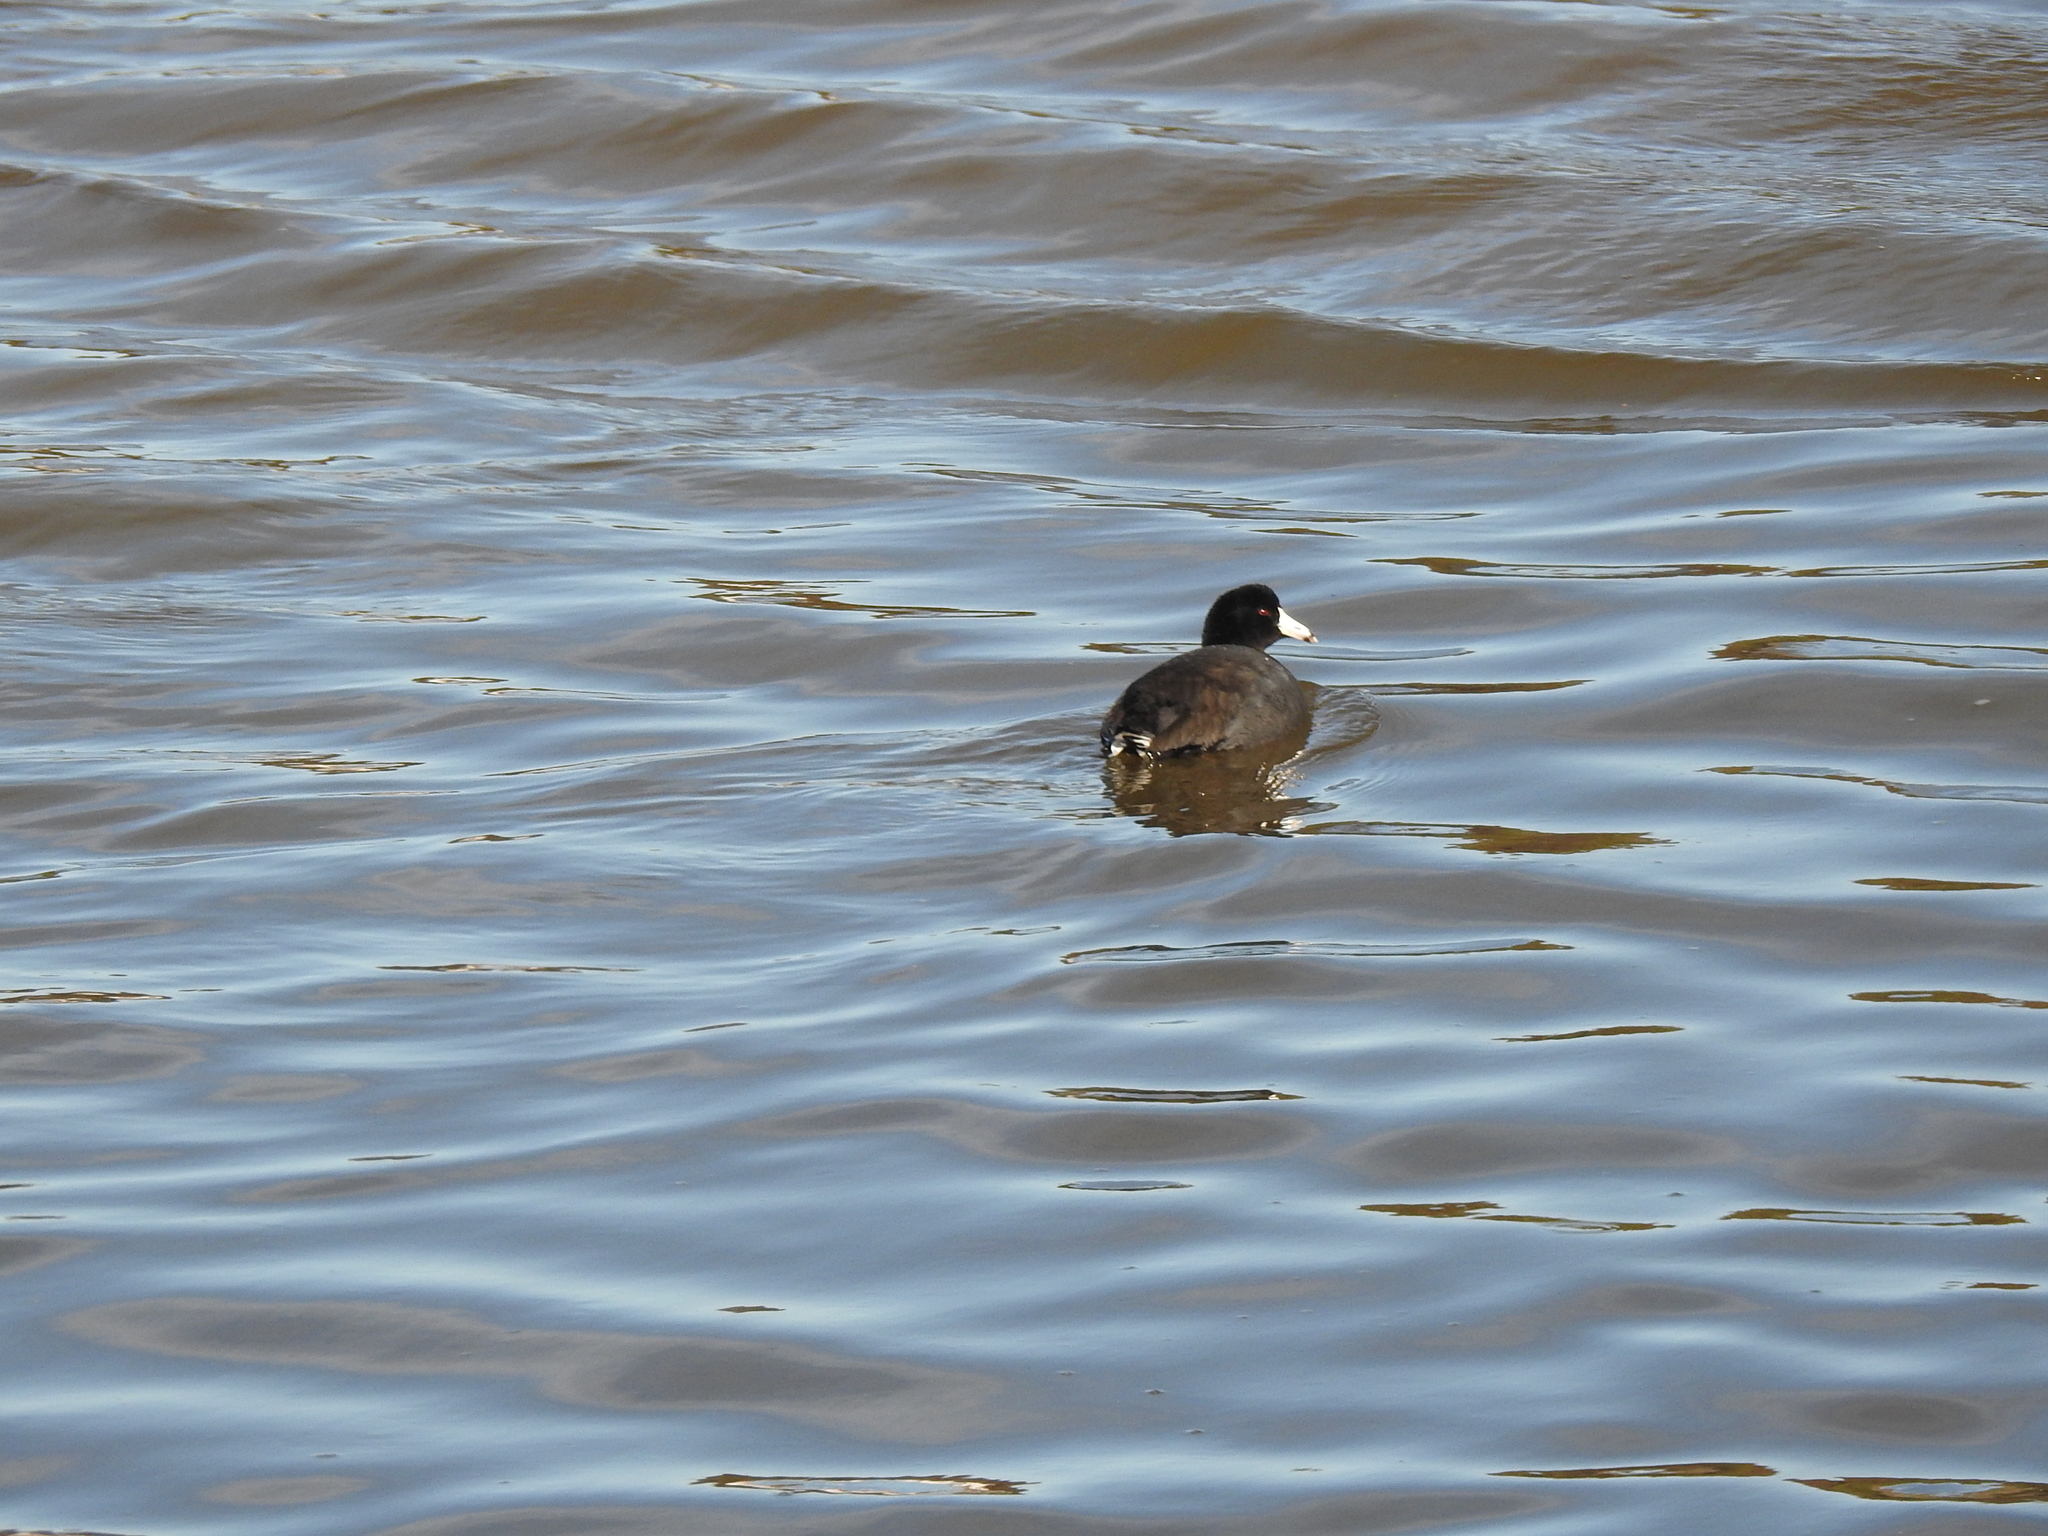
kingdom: Animalia
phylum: Chordata
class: Aves
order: Gruiformes
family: Rallidae
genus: Fulica
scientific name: Fulica americana
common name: American coot
